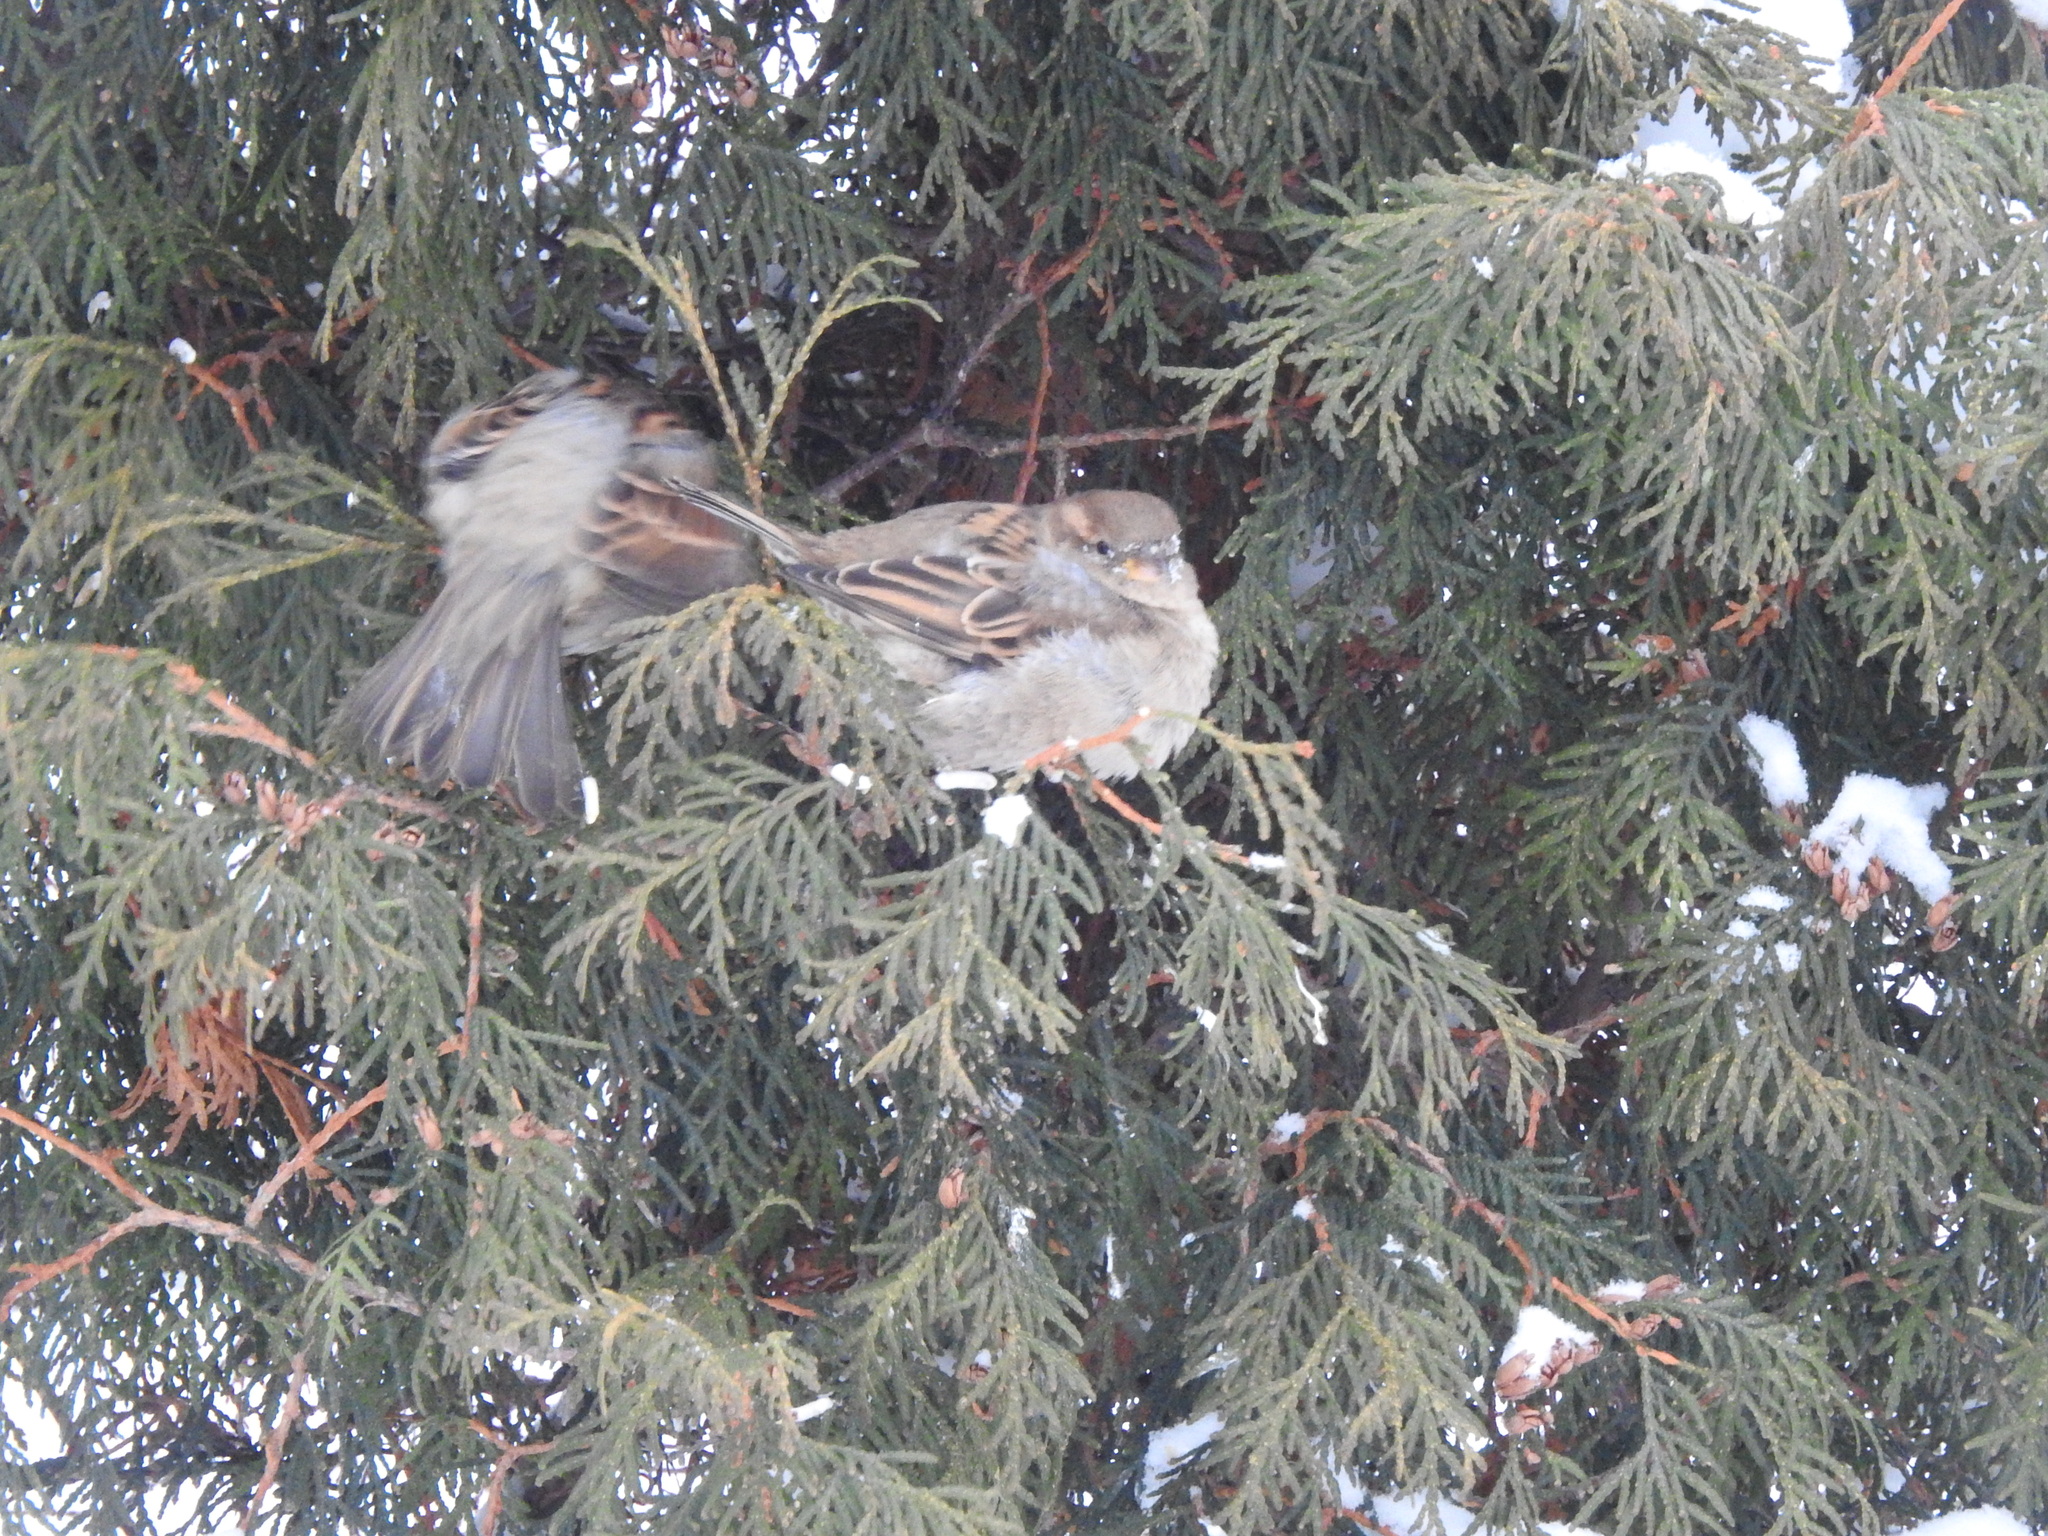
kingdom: Animalia
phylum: Chordata
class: Aves
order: Passeriformes
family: Passeridae
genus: Passer
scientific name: Passer domesticus
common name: House sparrow
